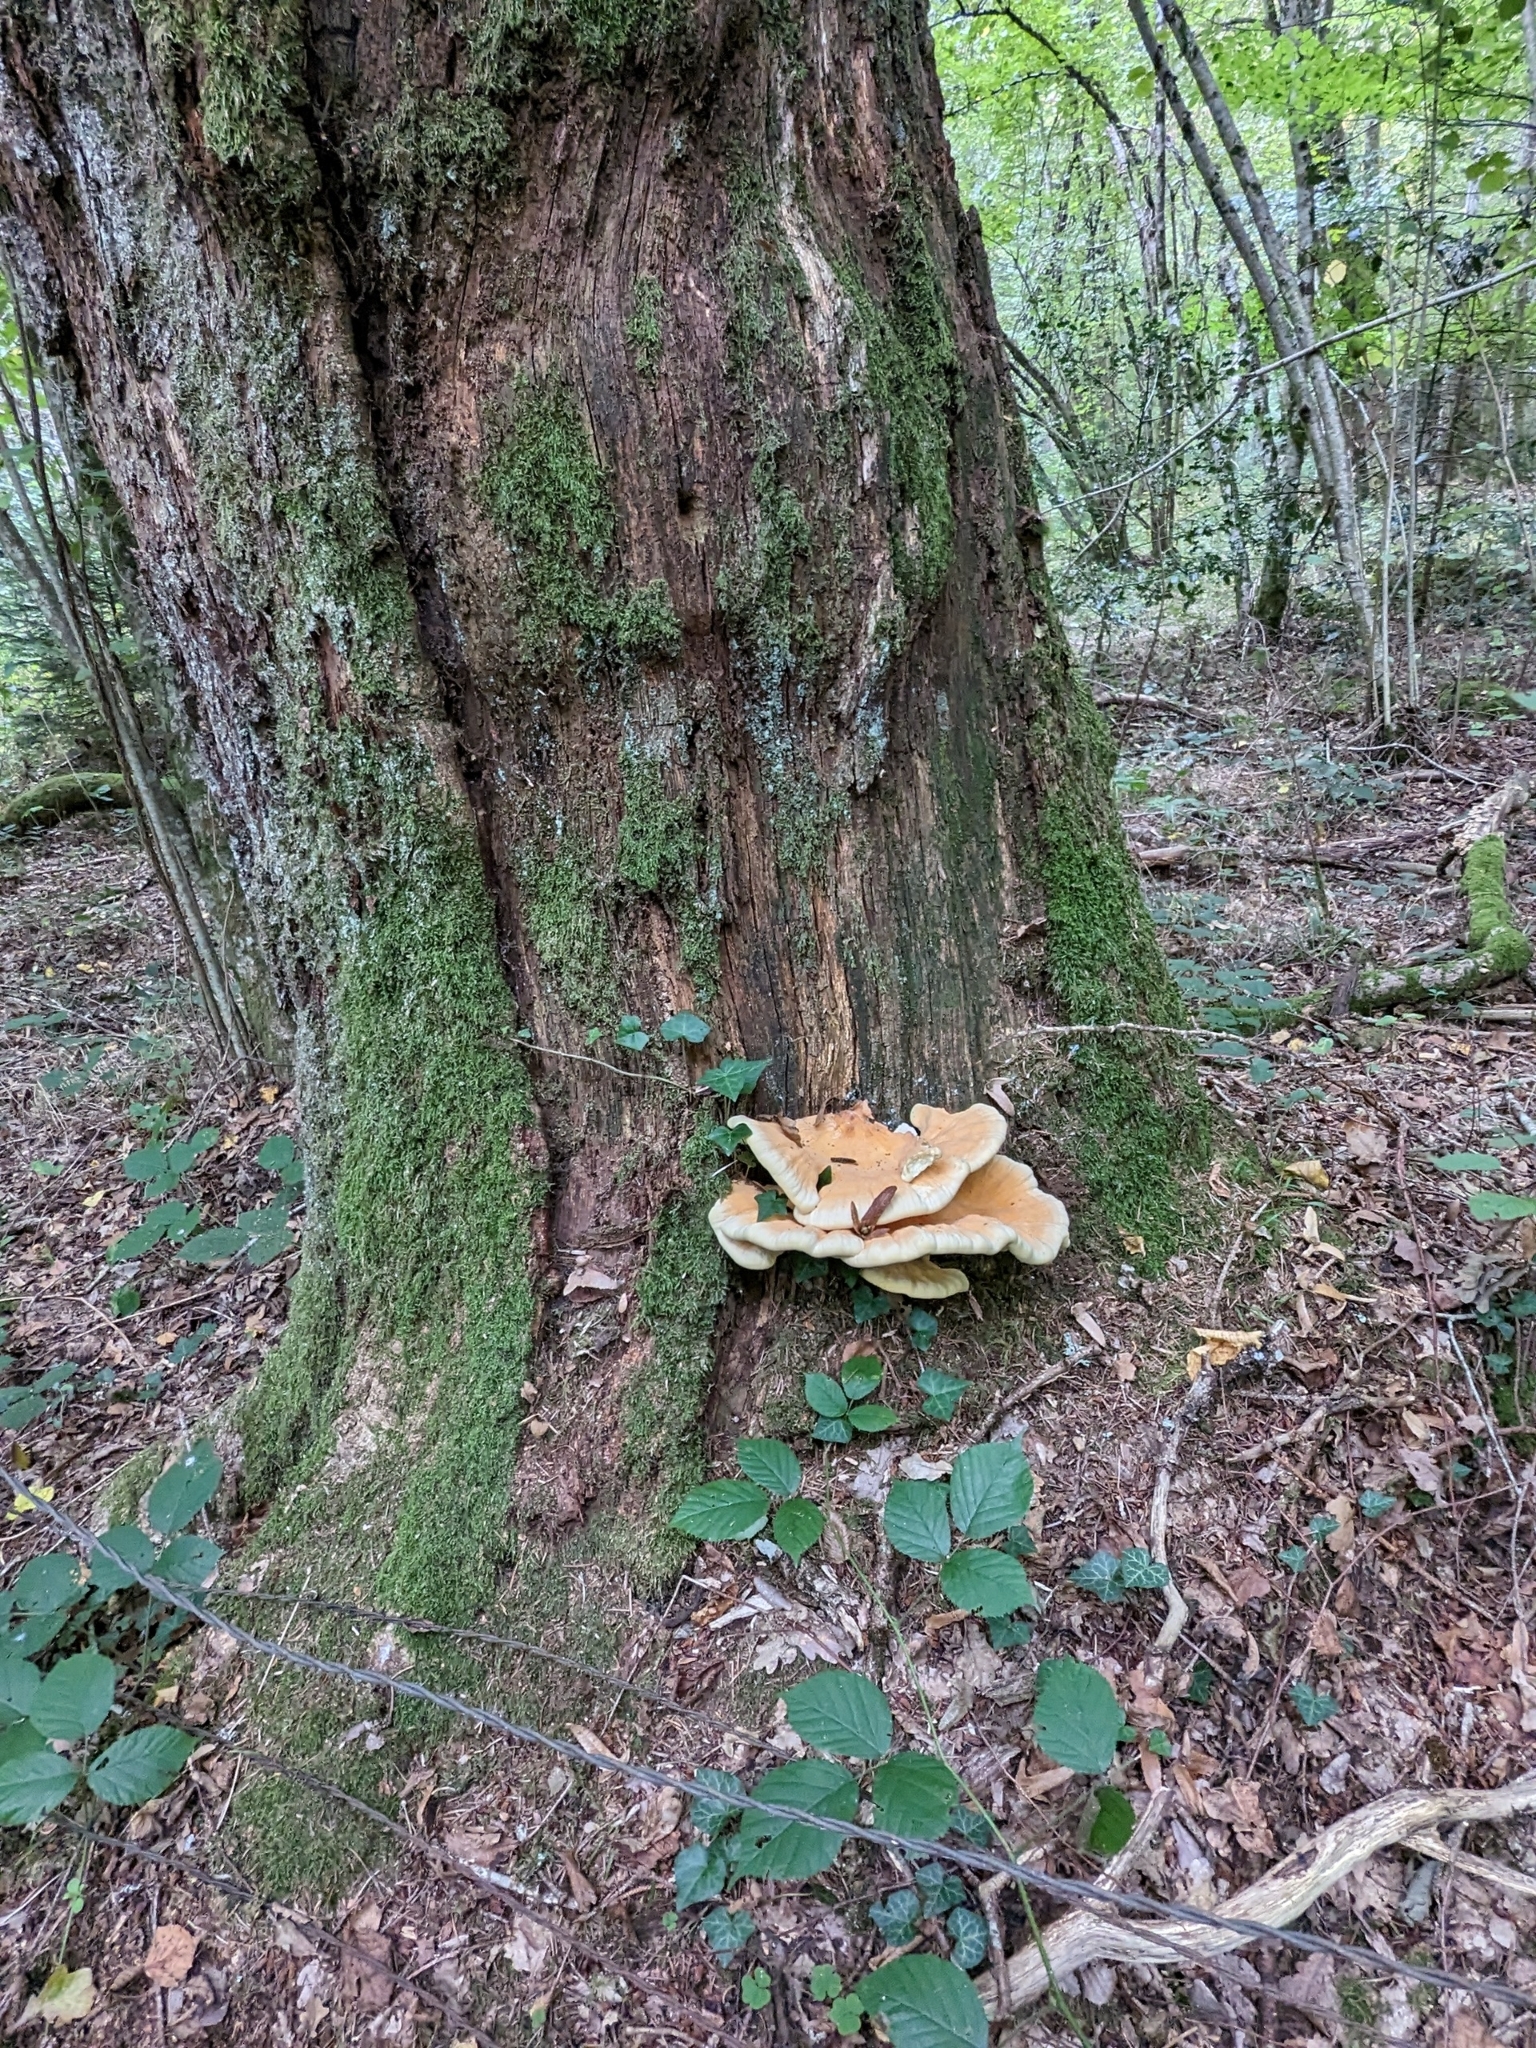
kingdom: Fungi
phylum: Basidiomycota
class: Agaricomycetes
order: Polyporales
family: Laetiporaceae
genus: Laetiporus
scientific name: Laetiporus sulphureus
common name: Chicken of the woods
